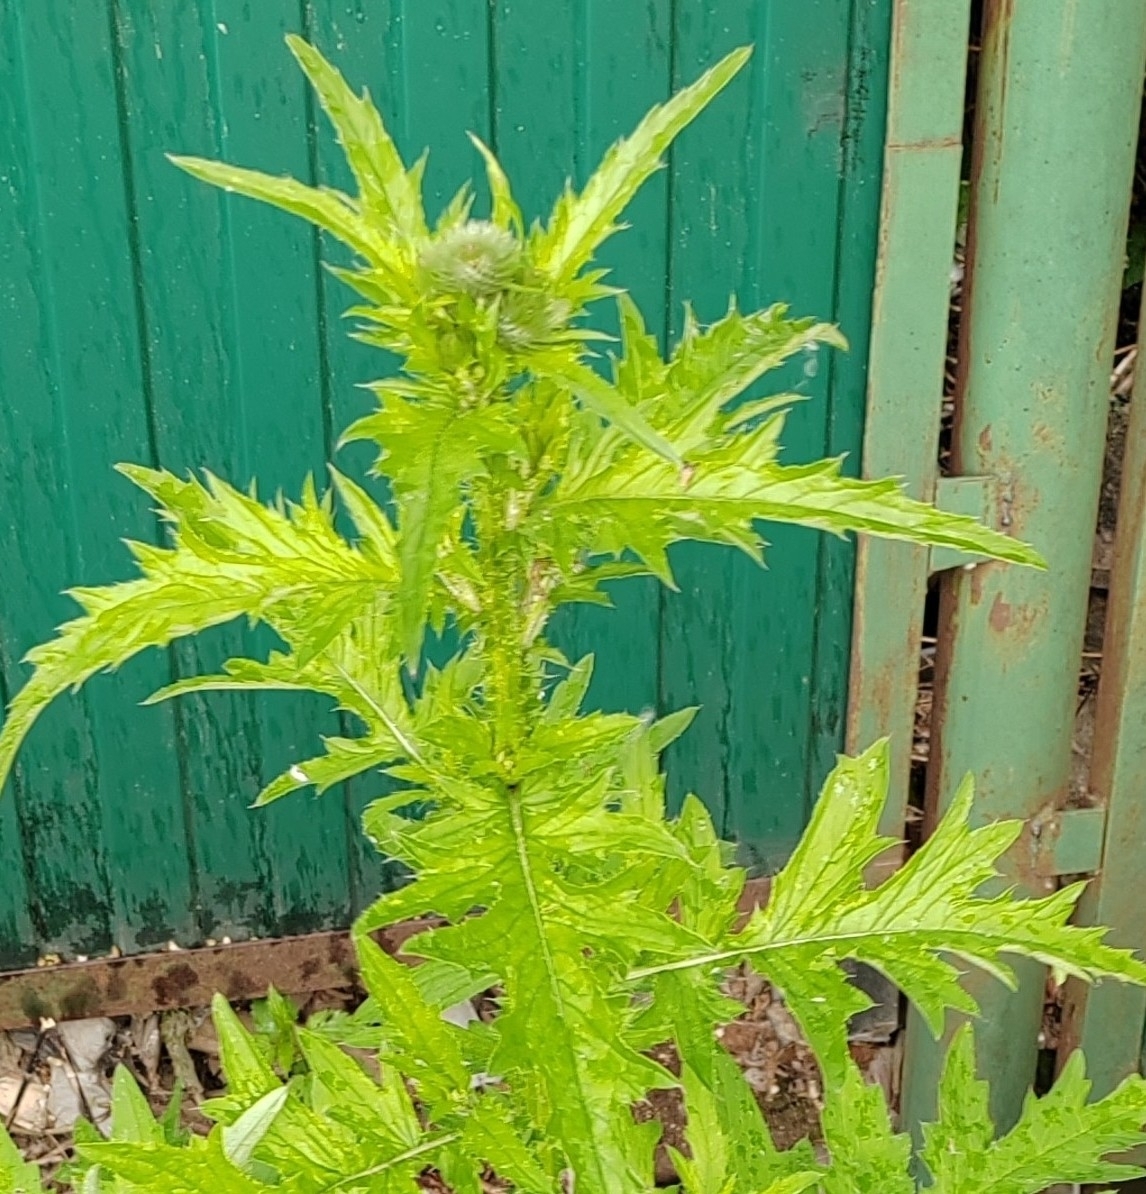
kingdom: Plantae
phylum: Tracheophyta
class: Magnoliopsida
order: Asterales
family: Asteraceae
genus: Carduus
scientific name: Carduus crispus
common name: Welted thistle
